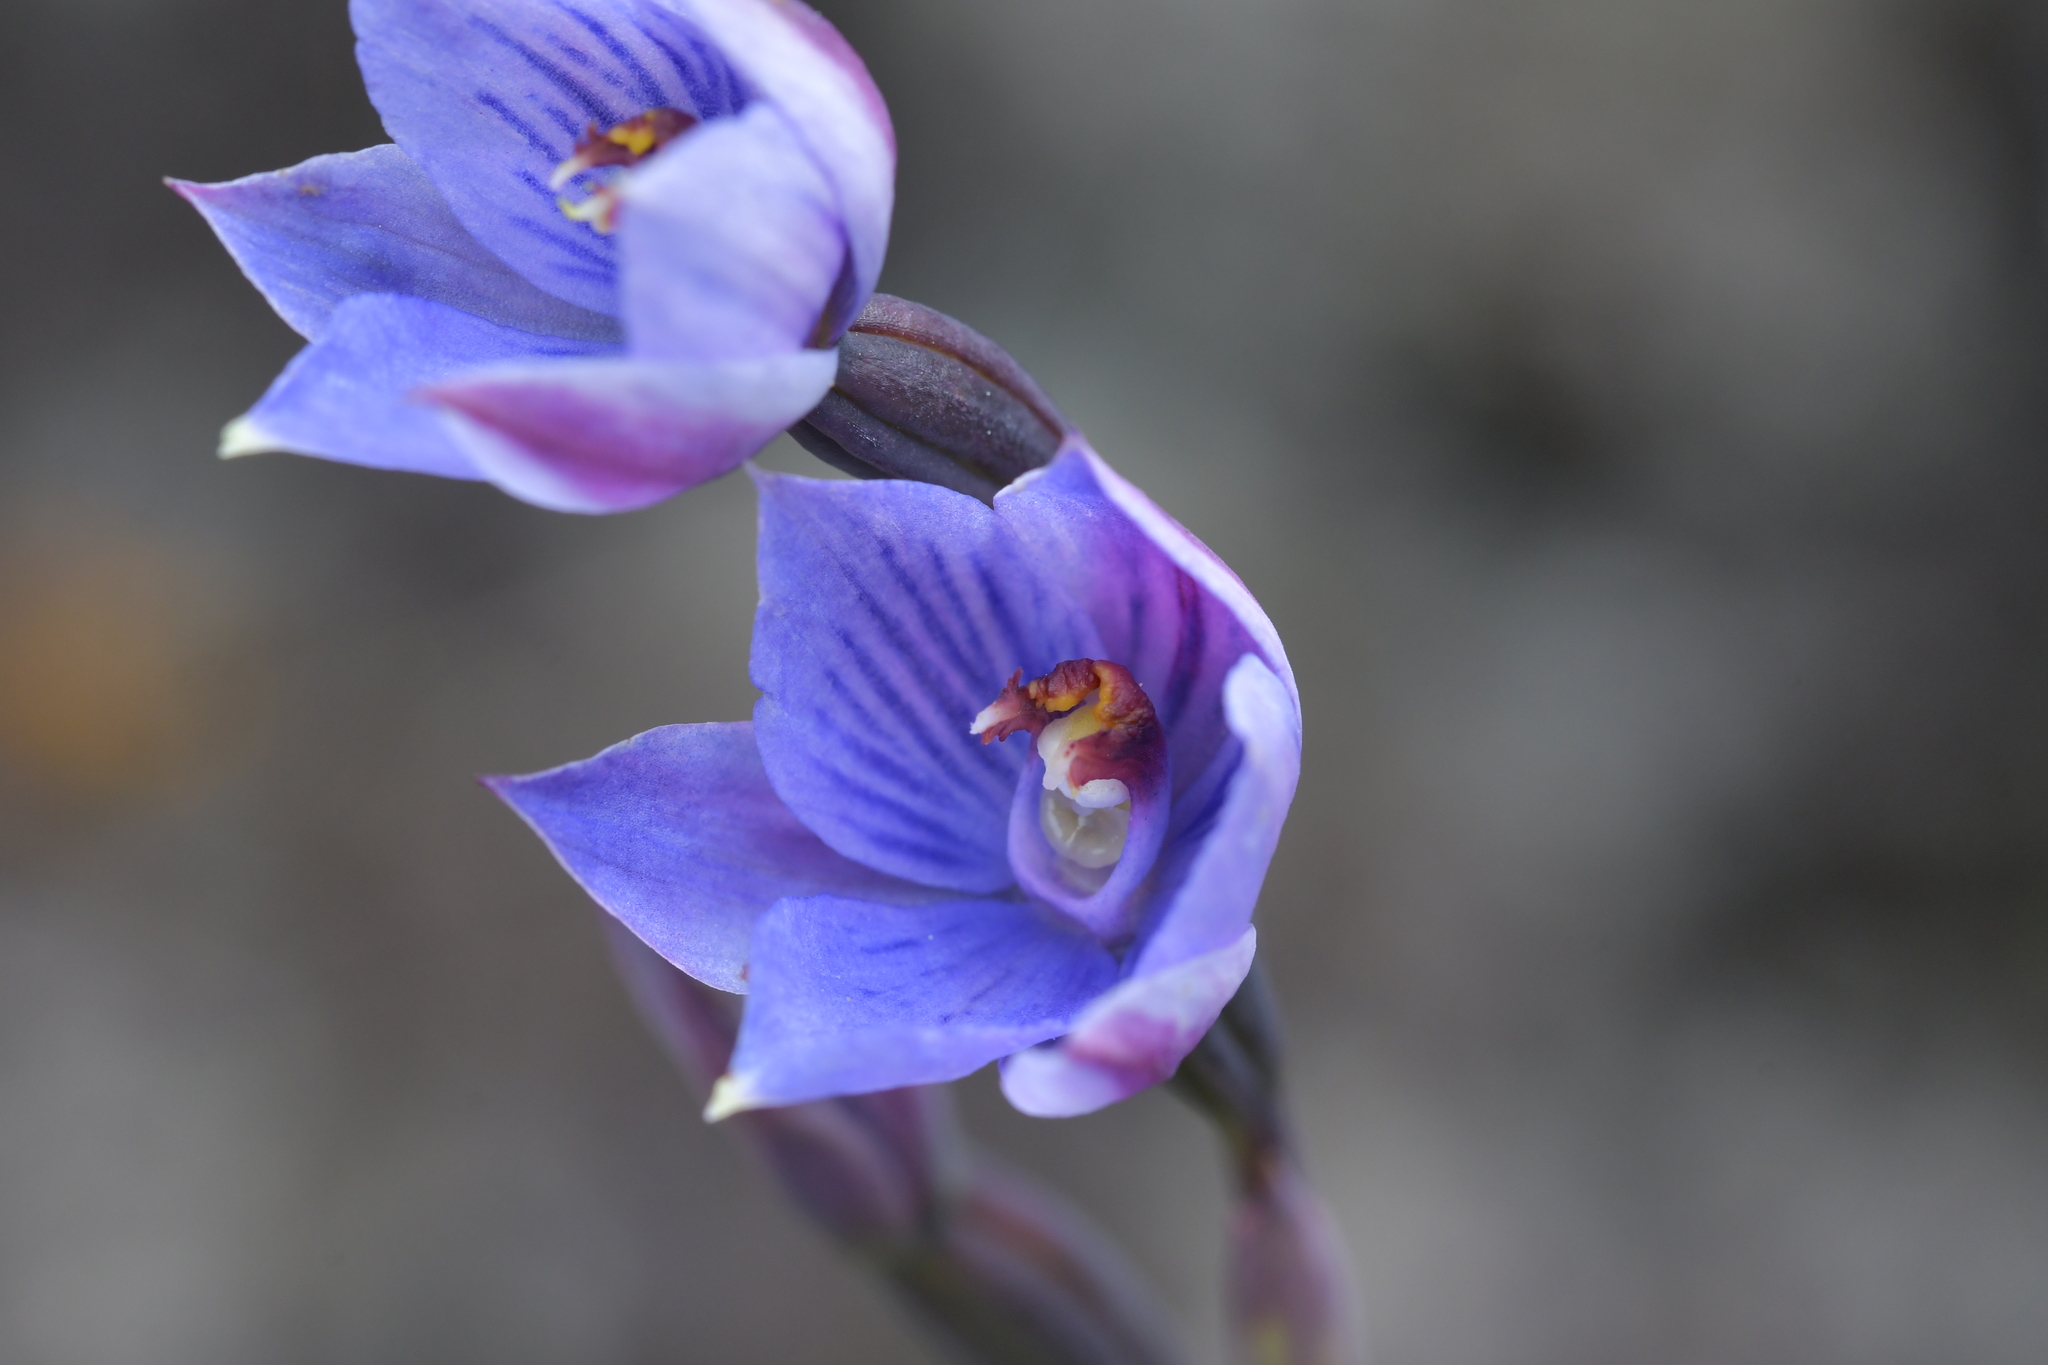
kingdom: Plantae
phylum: Tracheophyta
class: Liliopsida
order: Asparagales
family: Orchidaceae
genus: Thelymitra
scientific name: Thelymitra pulchella
